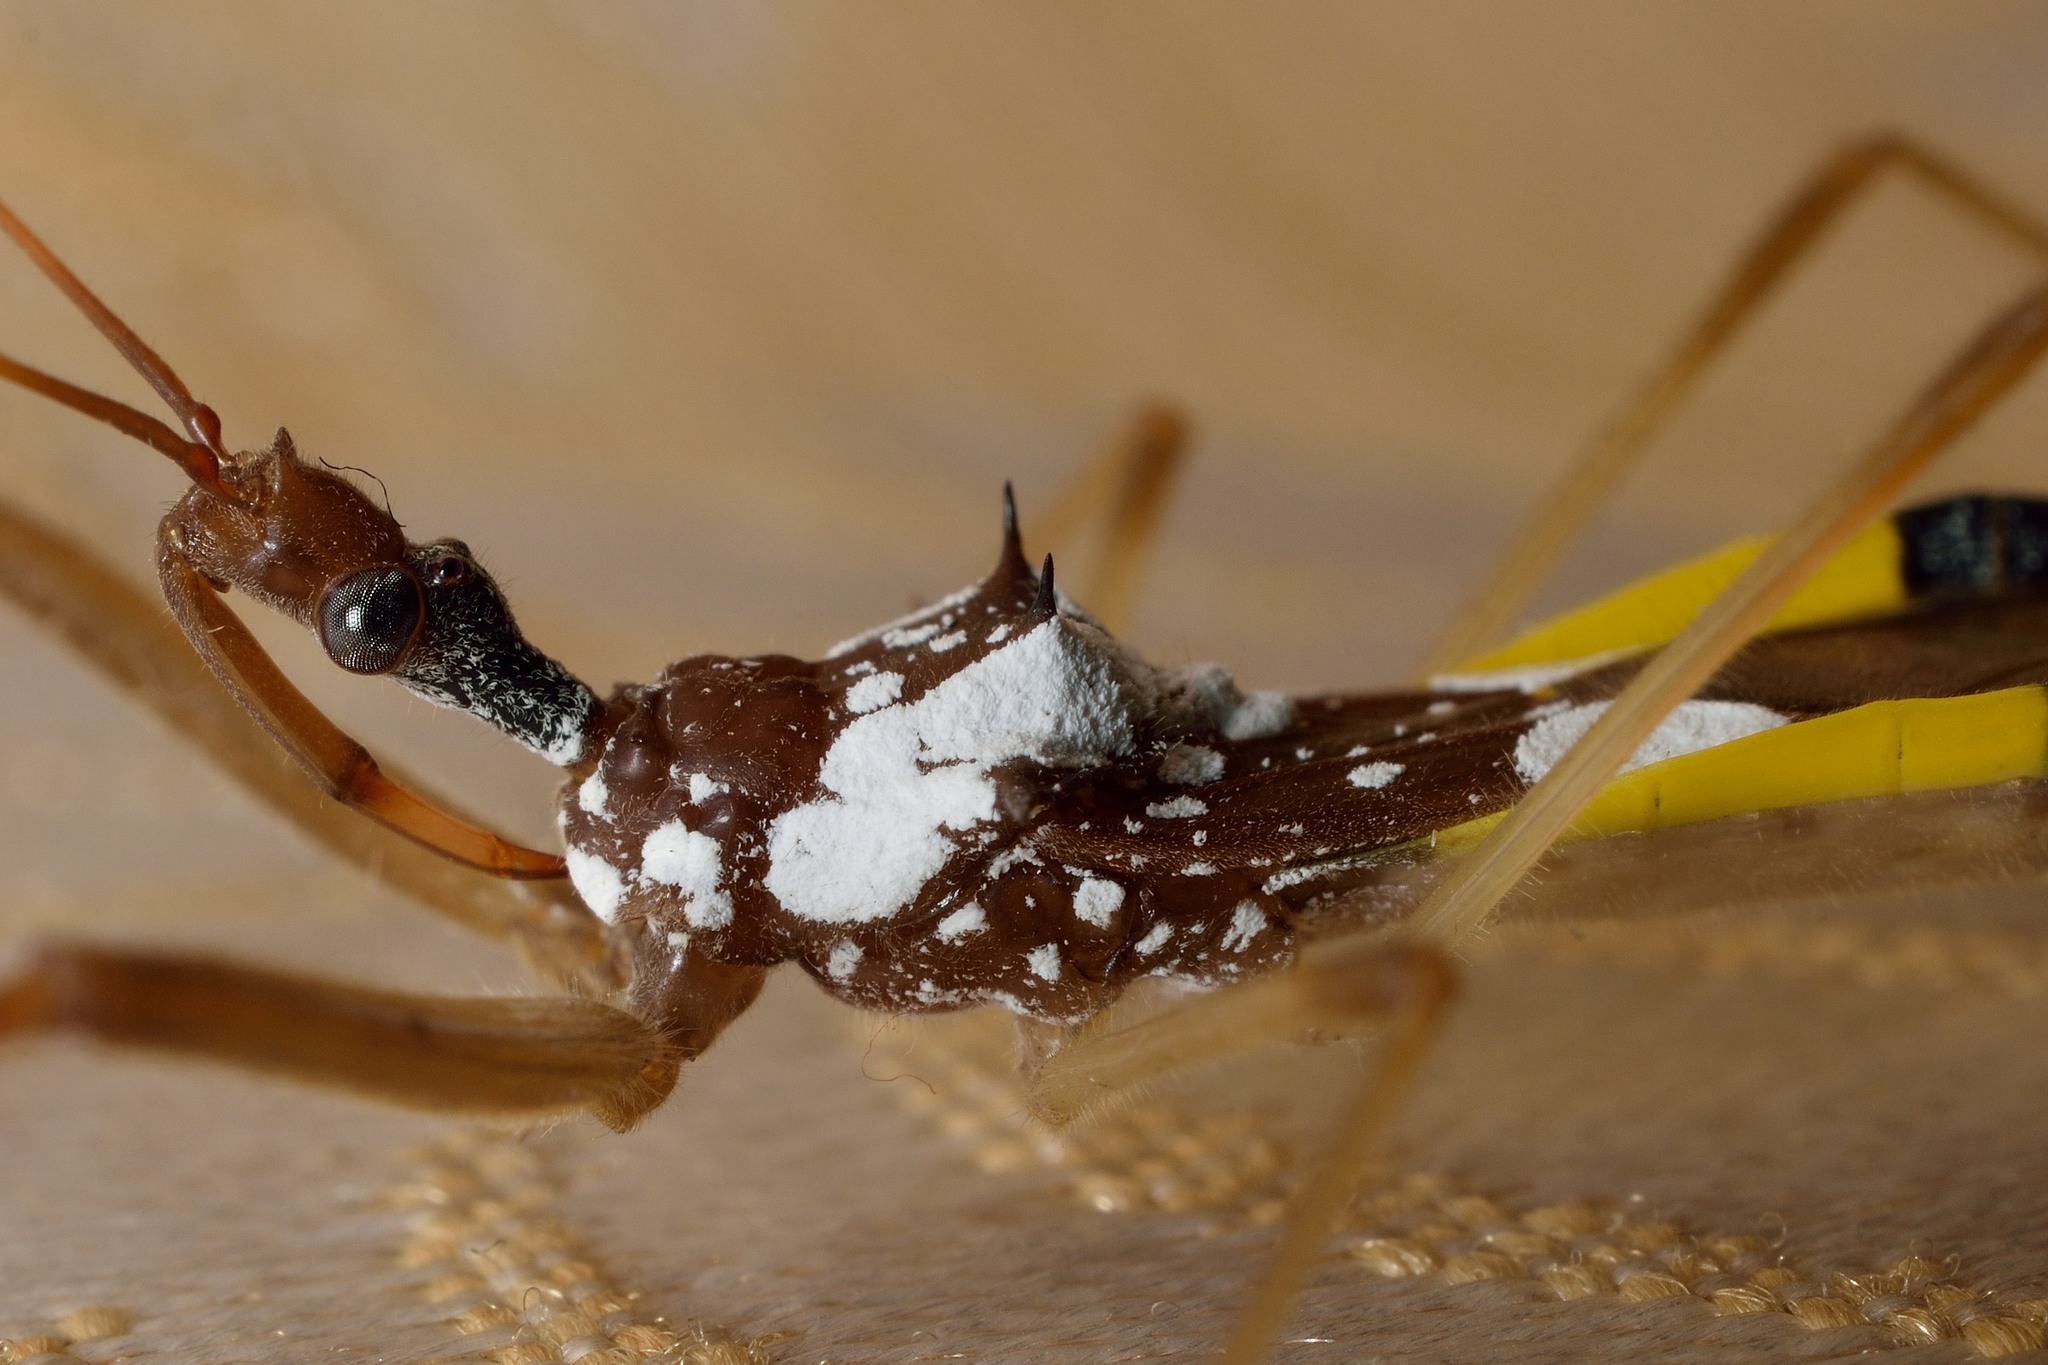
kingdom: Animalia
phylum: Arthropoda
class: Insecta
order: Hemiptera
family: Reduviidae
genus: Epidaus
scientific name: Epidaus famulus
